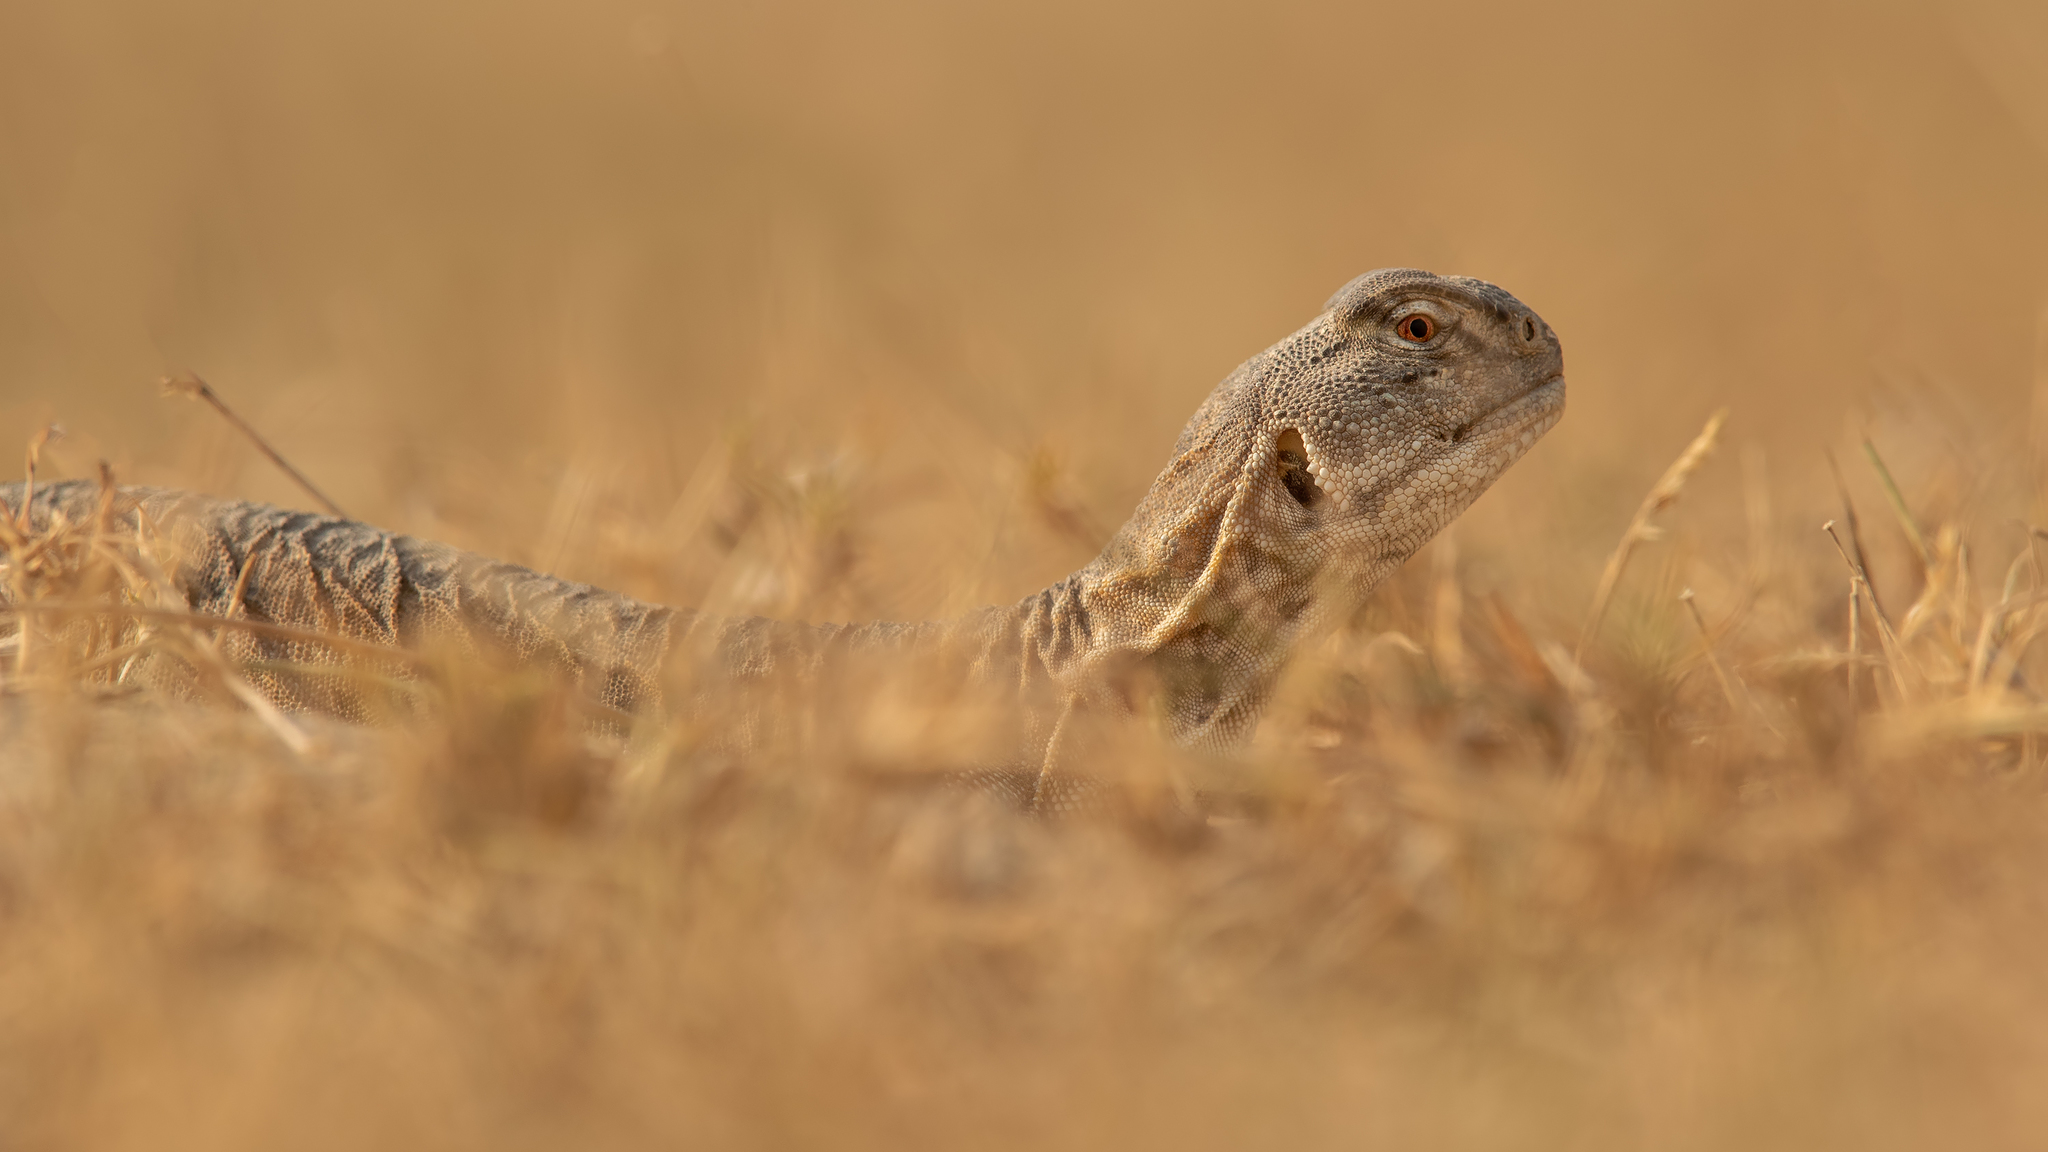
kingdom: Animalia
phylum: Chordata
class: Squamata
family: Agamidae
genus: Saara
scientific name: Saara hardwickii
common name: Hardwick's spiny-tailed lizard
